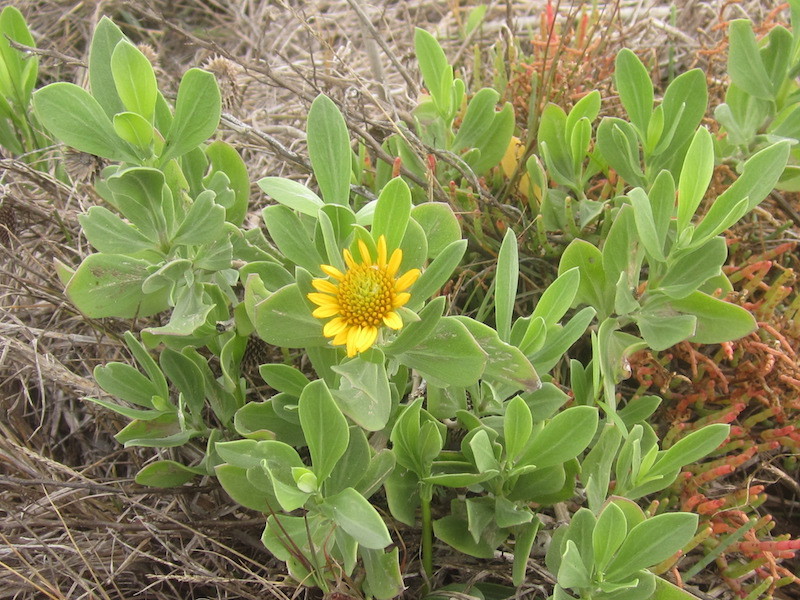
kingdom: Plantae
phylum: Tracheophyta
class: Magnoliopsida
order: Asterales
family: Asteraceae
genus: Borrichia
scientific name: Borrichia frutescens
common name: Sea oxeye
